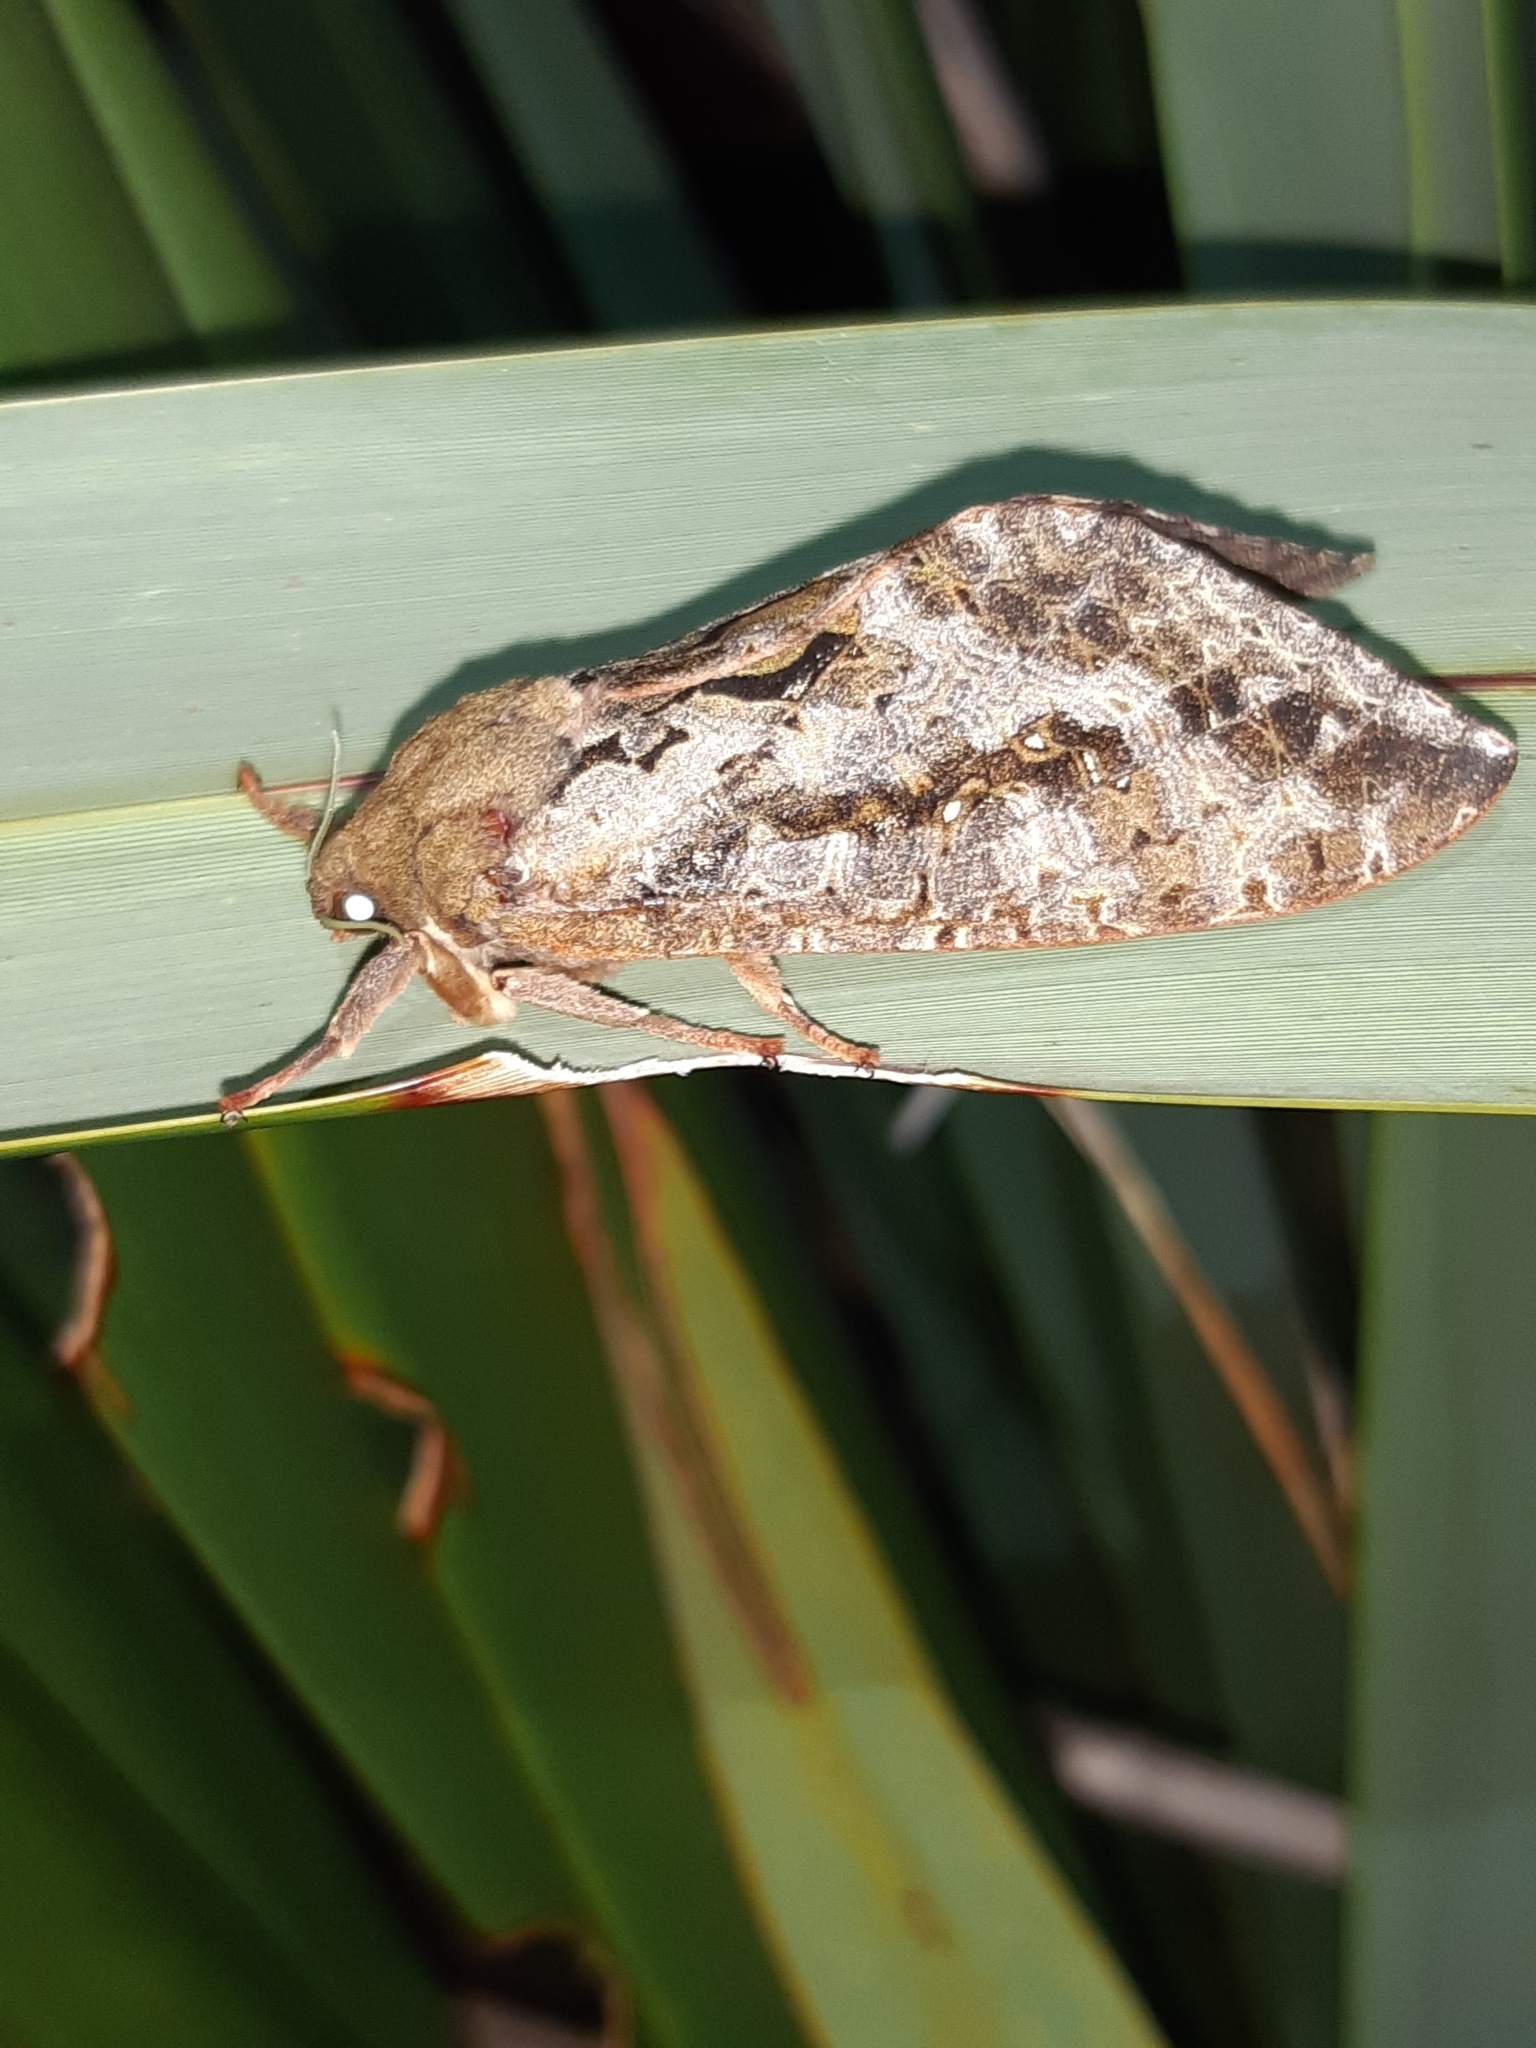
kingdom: Animalia
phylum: Arthropoda
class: Insecta
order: Lepidoptera
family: Hepialidae
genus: Dumbletonius
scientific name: Dumbletonius characterifer
